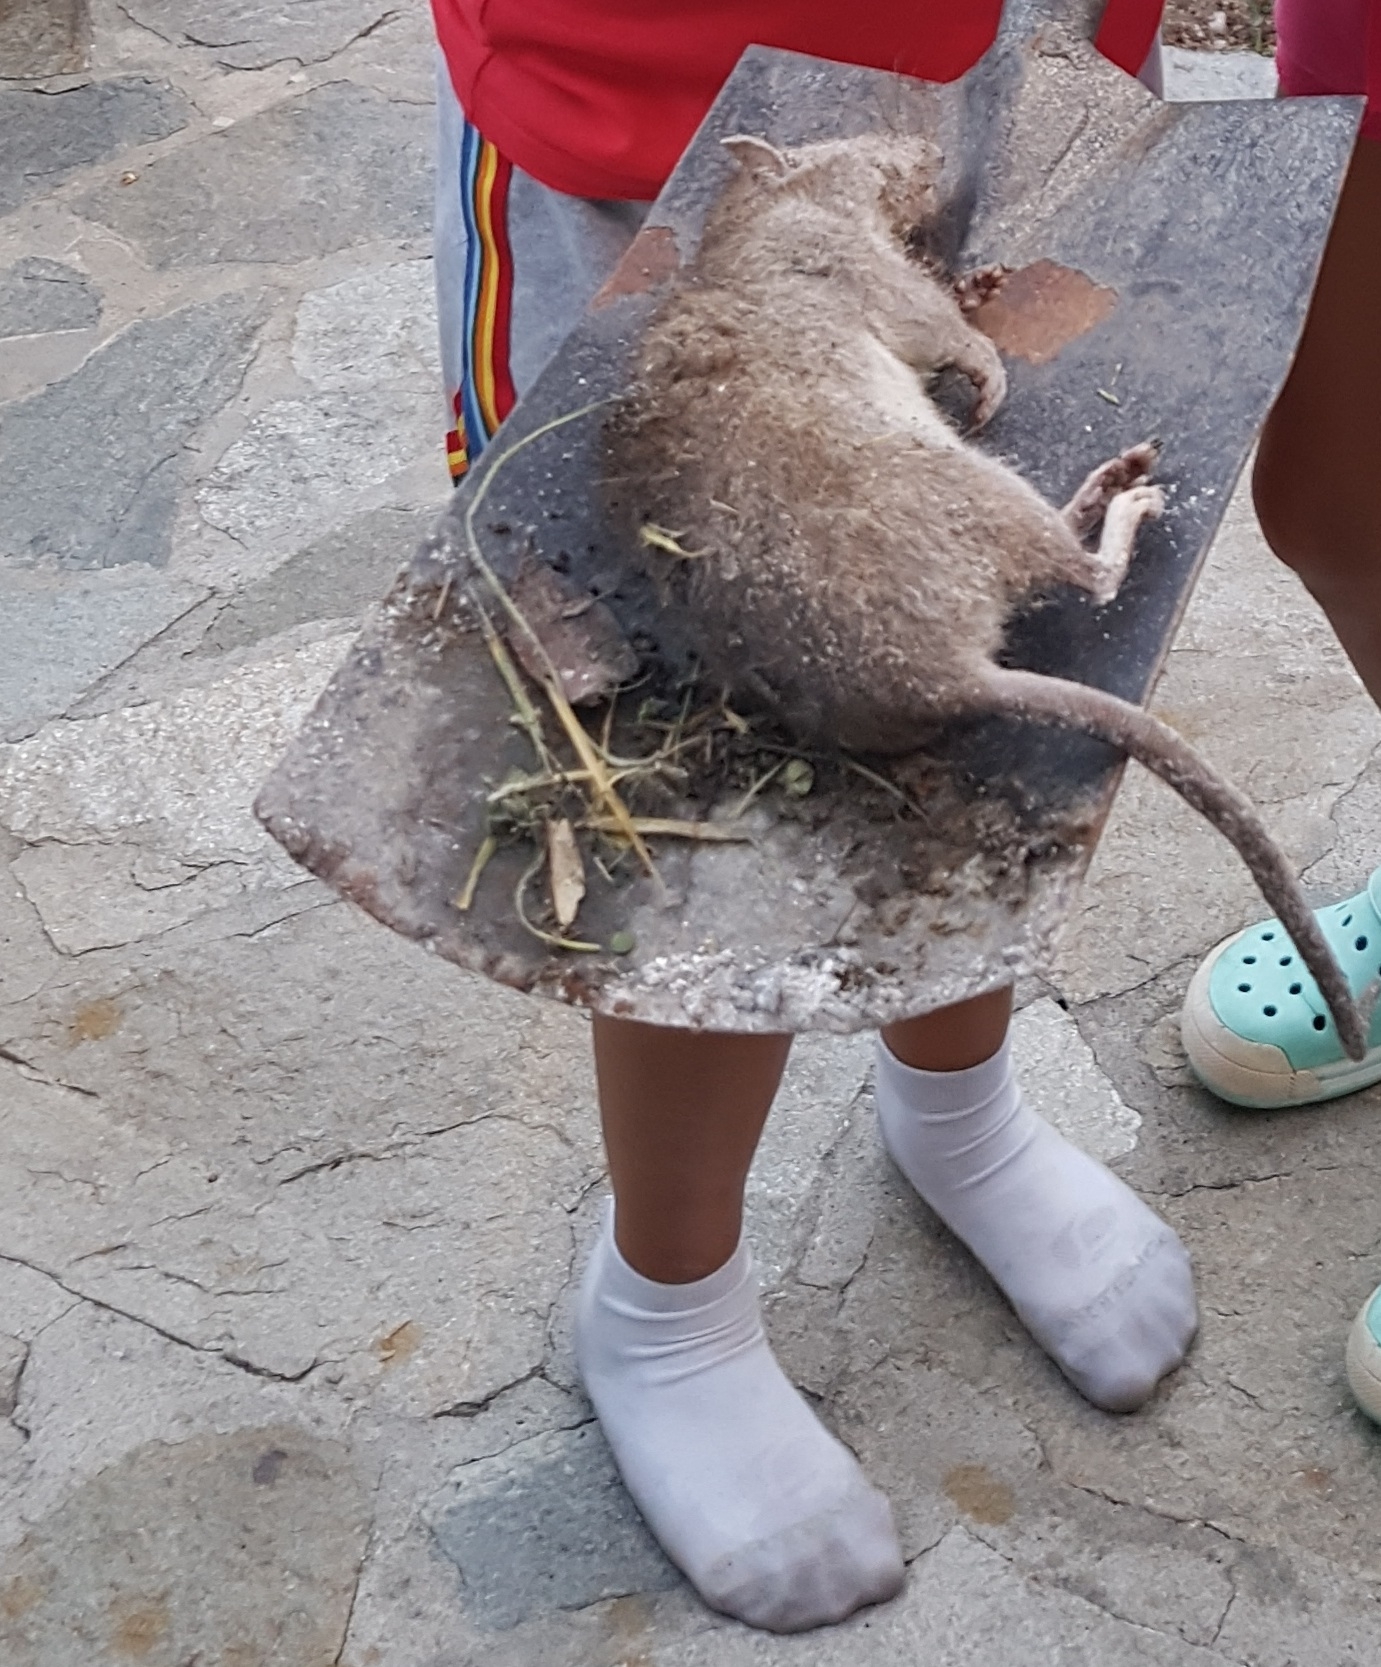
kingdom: Animalia
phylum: Chordata
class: Mammalia
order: Rodentia
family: Muridae
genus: Rattus
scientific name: Rattus norvegicus
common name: Brown rat
